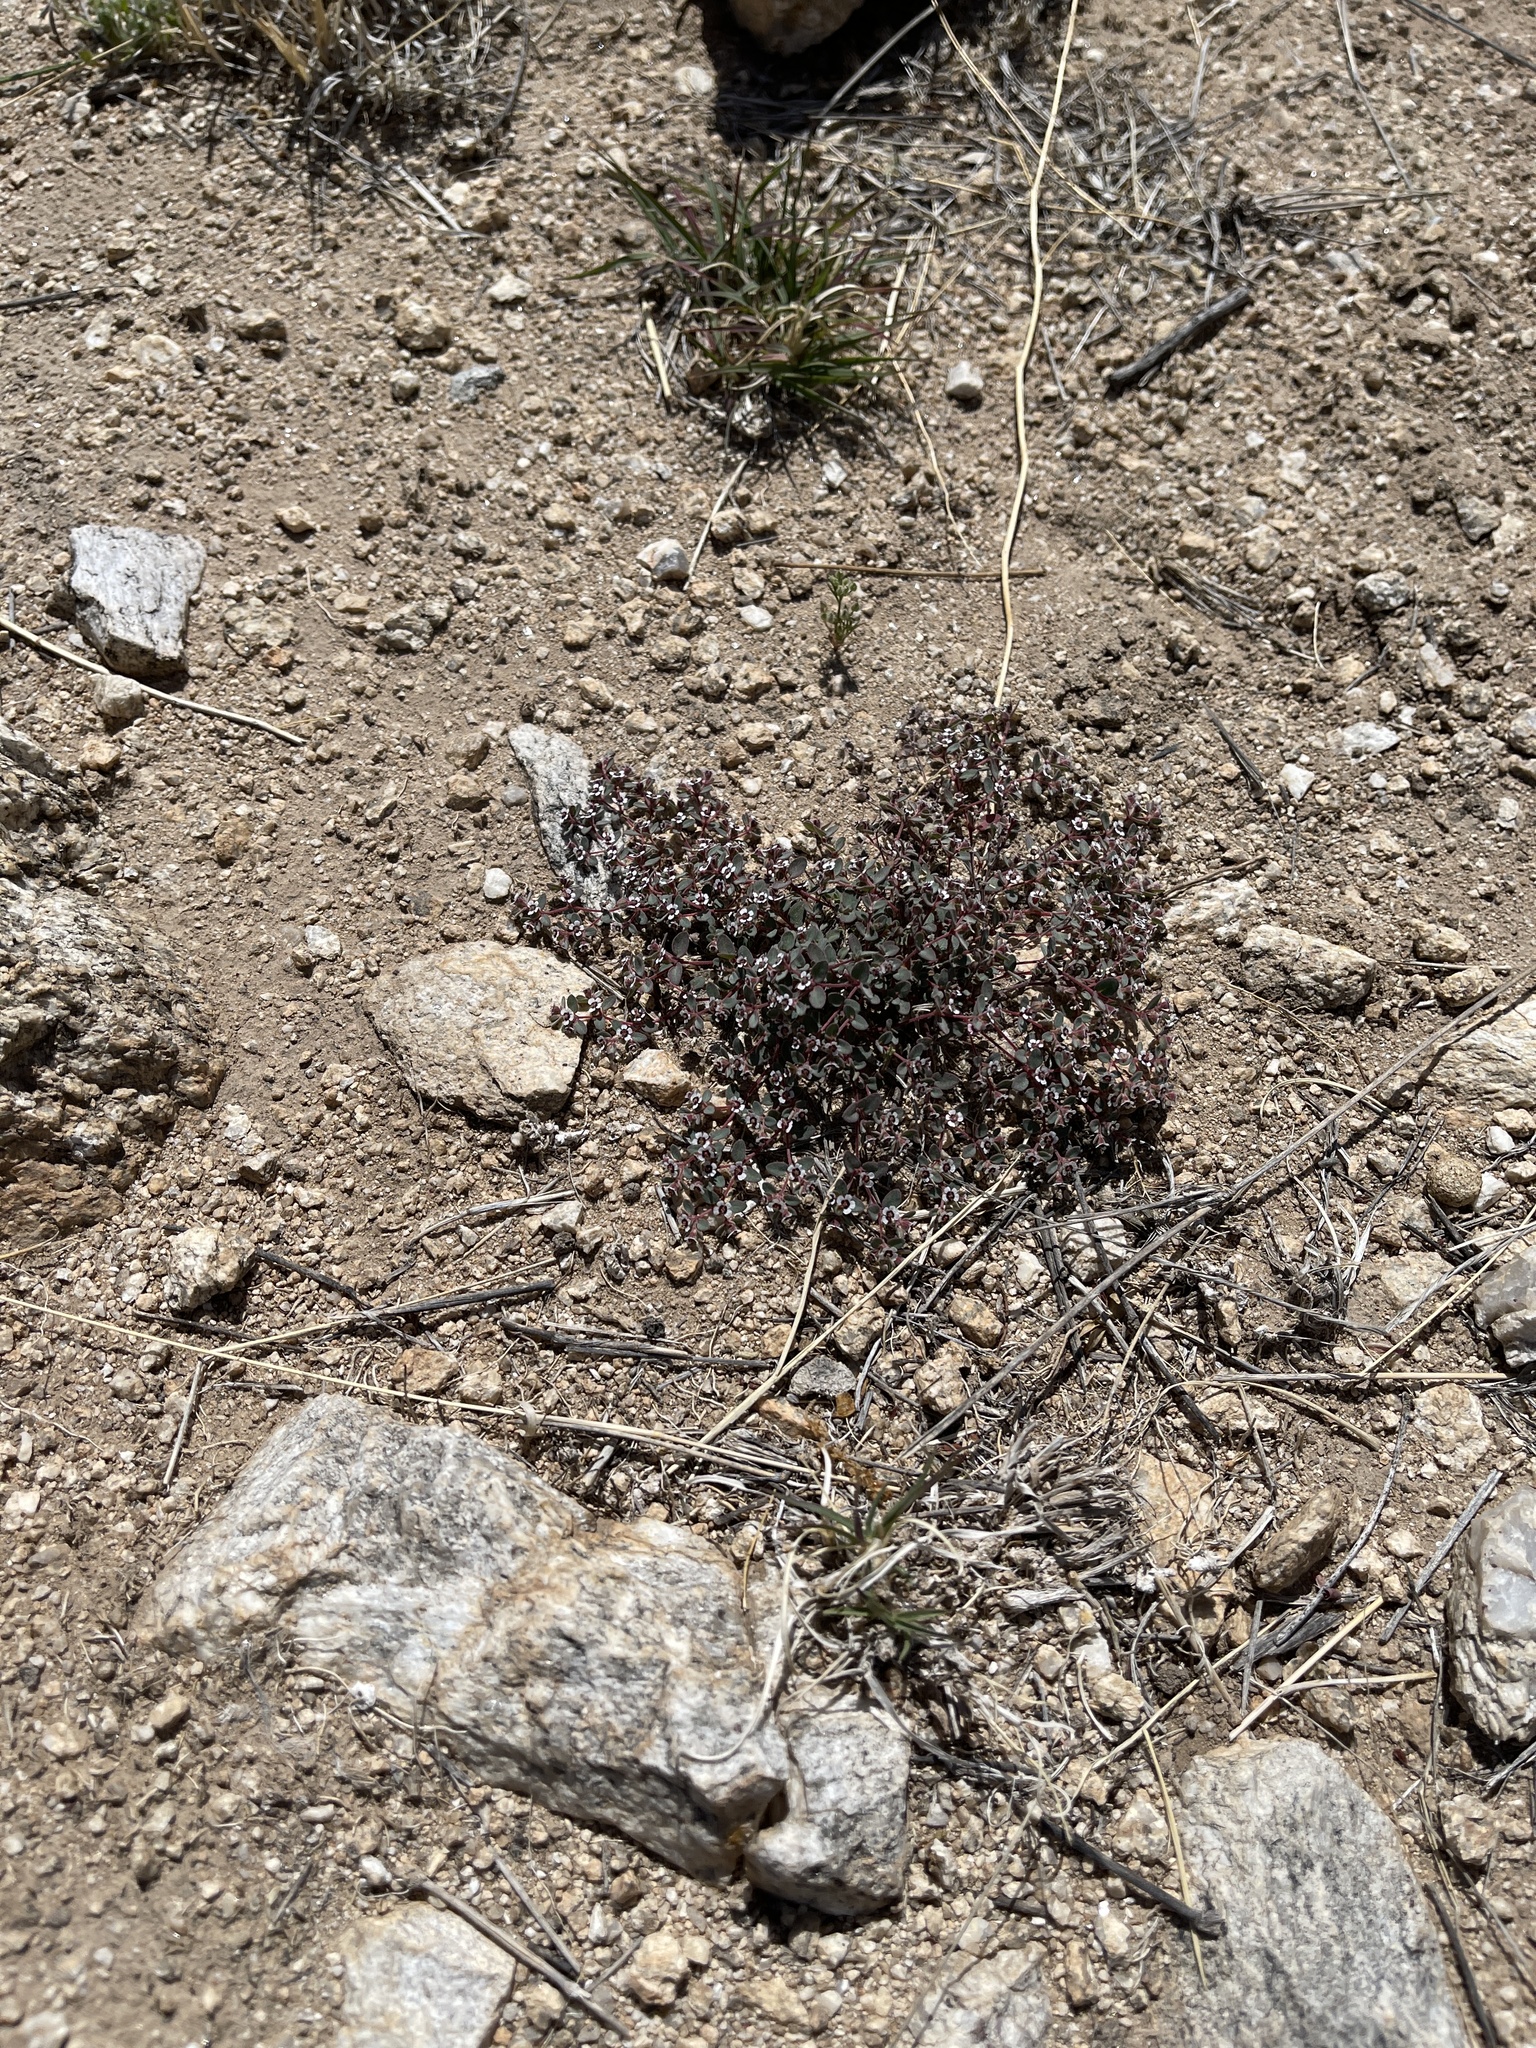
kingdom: Plantae
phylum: Tracheophyta
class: Magnoliopsida
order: Malpighiales
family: Euphorbiaceae
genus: Euphorbia
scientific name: Euphorbia melanadenia
